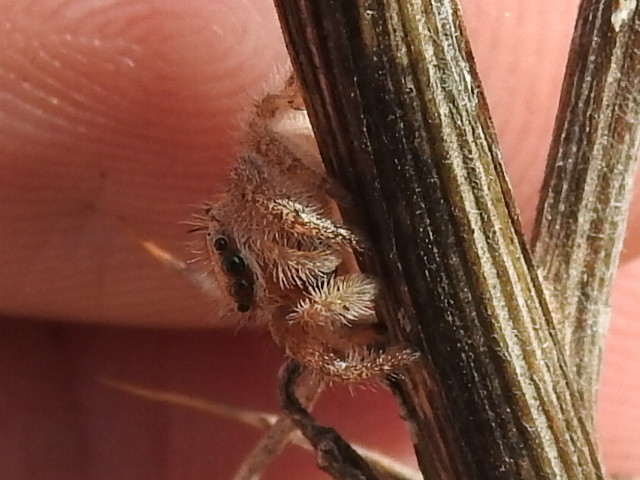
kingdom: Animalia
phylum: Arthropoda
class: Arachnida
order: Araneae
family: Salticidae
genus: Phidippus
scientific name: Phidippus cardinalis
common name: Cardinal jumper
